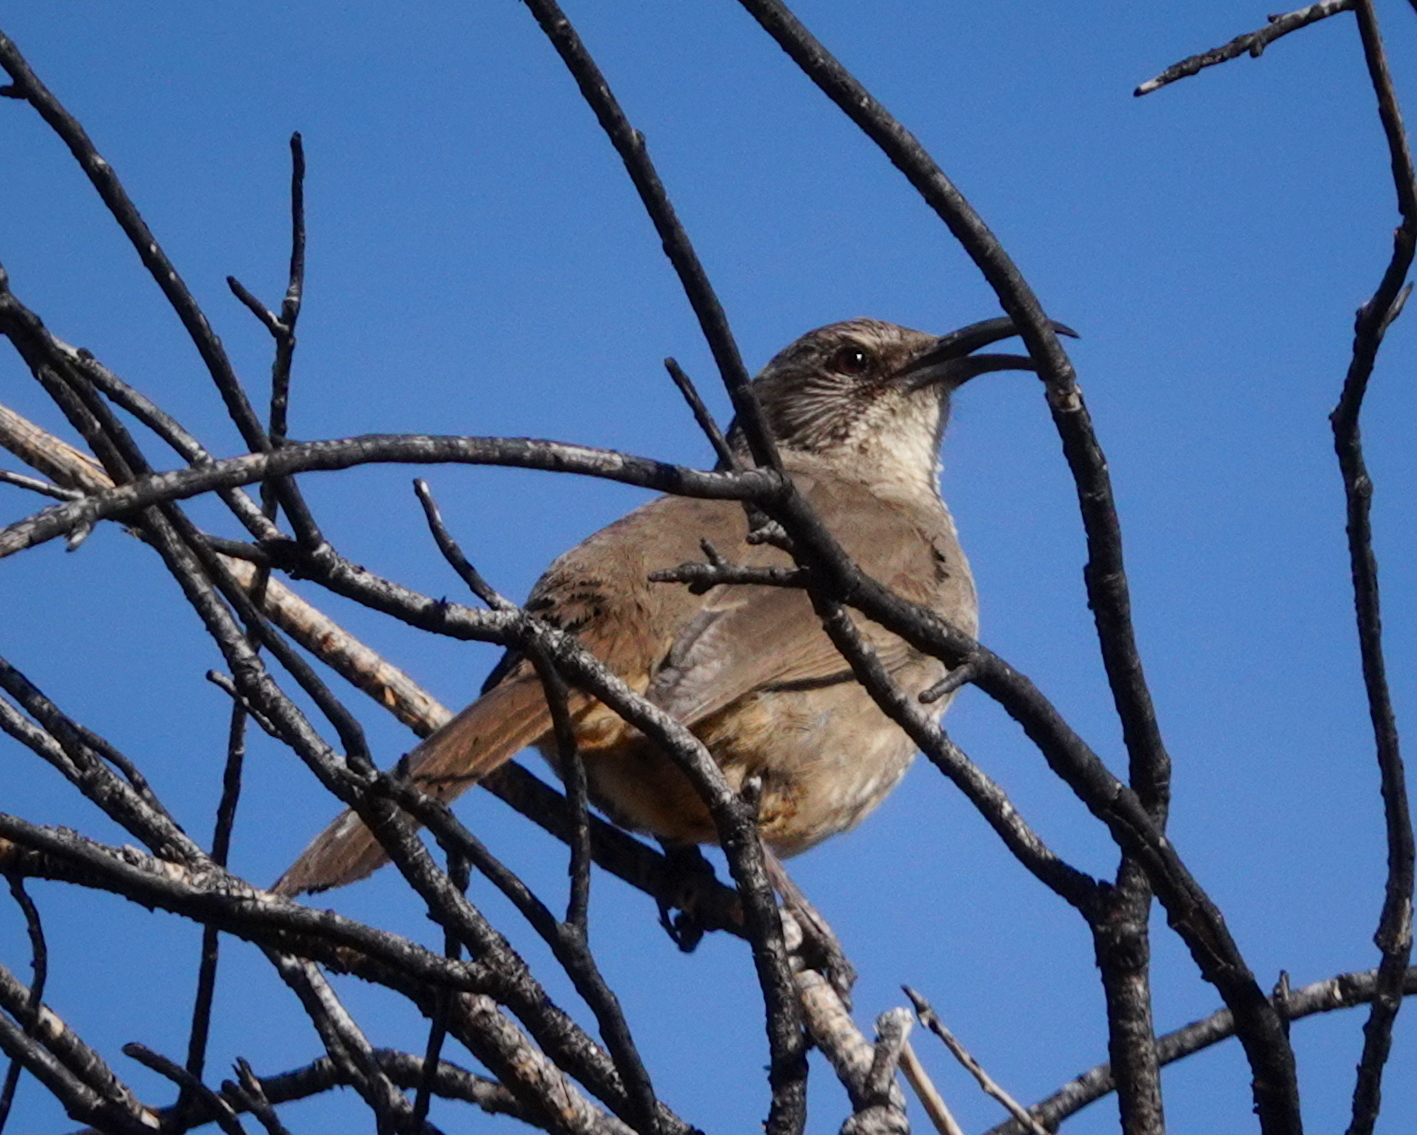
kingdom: Animalia
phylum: Chordata
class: Aves
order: Passeriformes
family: Mimidae
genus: Toxostoma
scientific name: Toxostoma redivivum
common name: California thrasher
